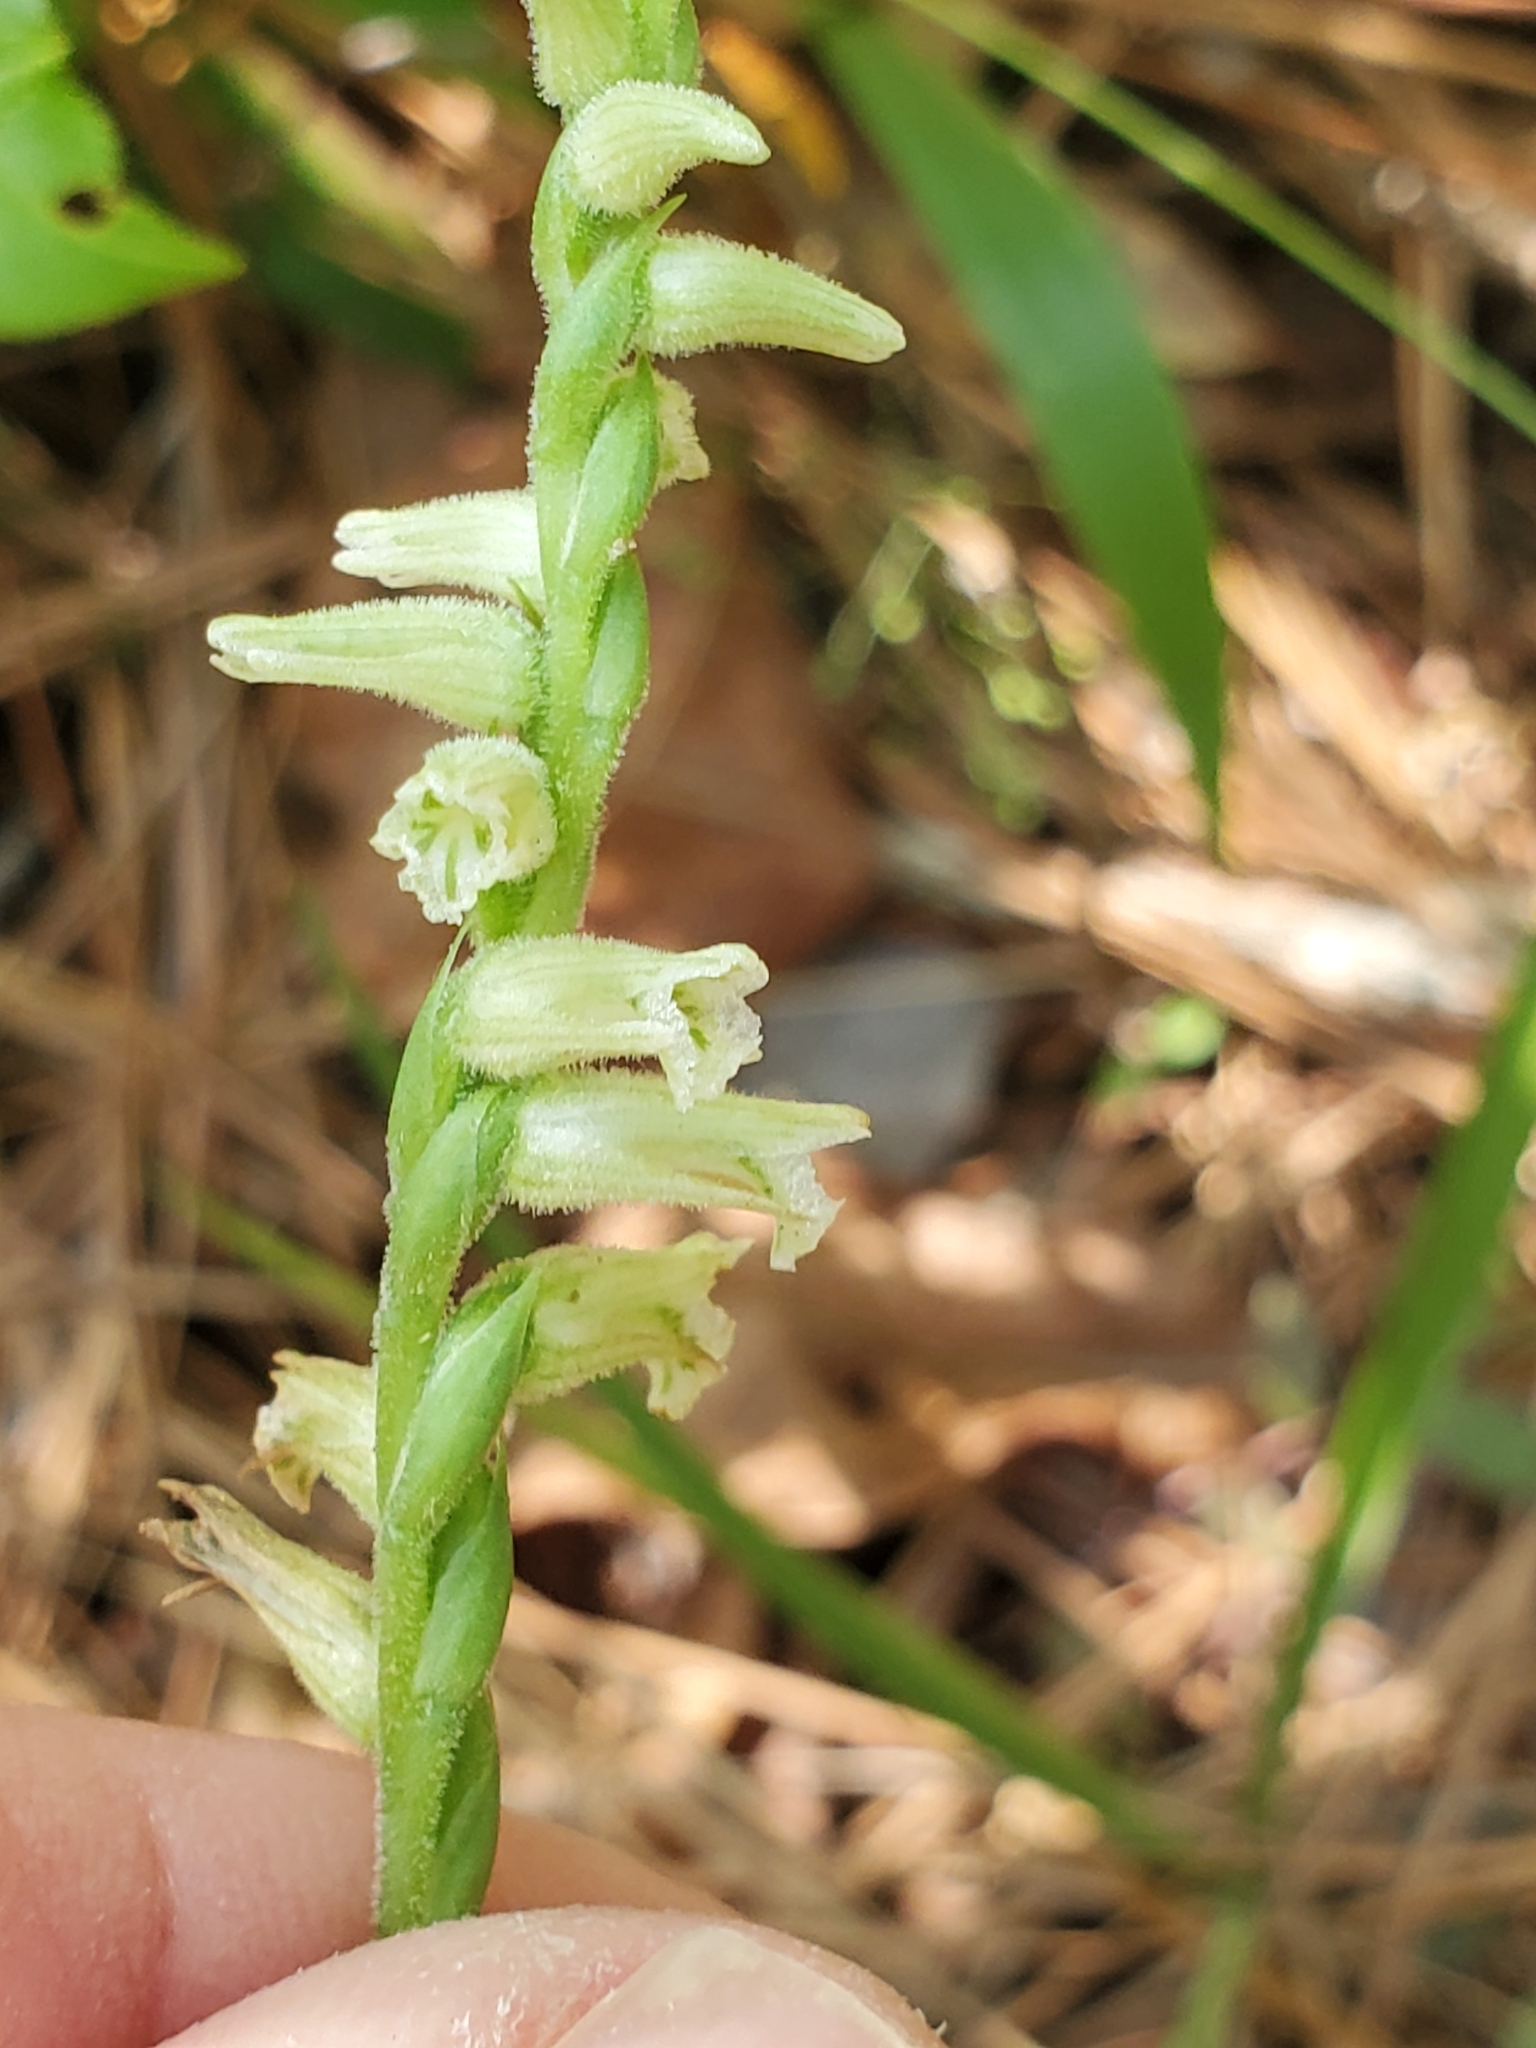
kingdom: Plantae
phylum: Tracheophyta
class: Liliopsida
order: Asparagales
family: Orchidaceae
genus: Spiranthes
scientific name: Spiranthes praecox
